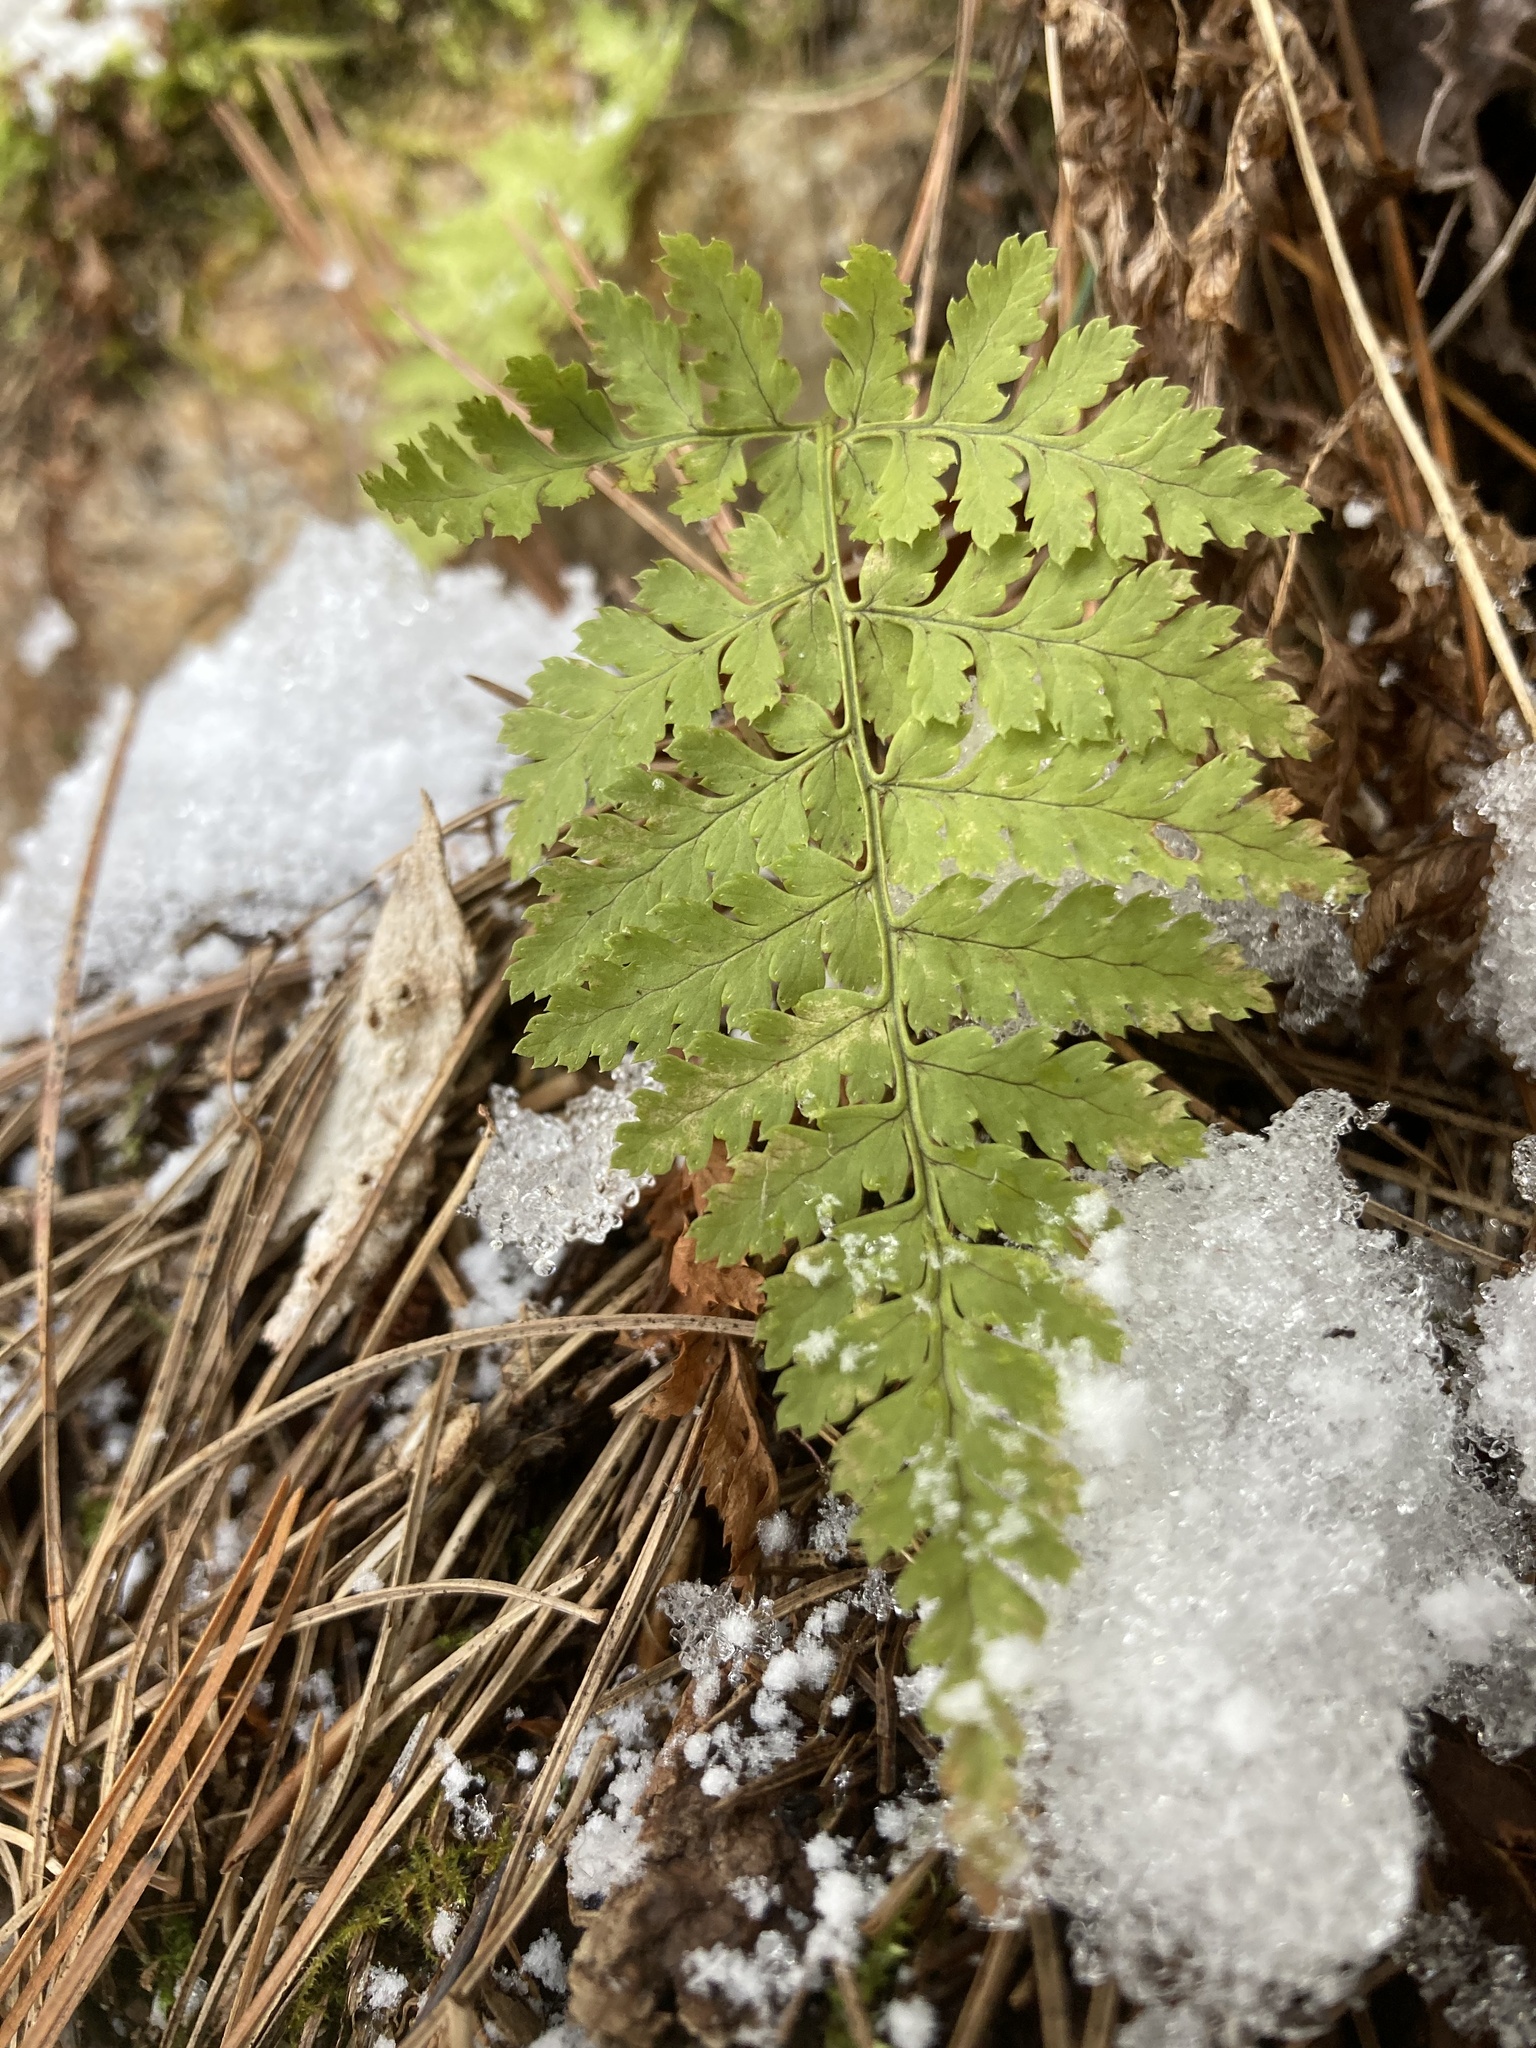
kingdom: Plantae
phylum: Tracheophyta
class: Polypodiopsida
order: Polypodiales
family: Dryopteridaceae
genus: Dryopteris
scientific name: Dryopteris intermedia
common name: Evergreen wood fern
